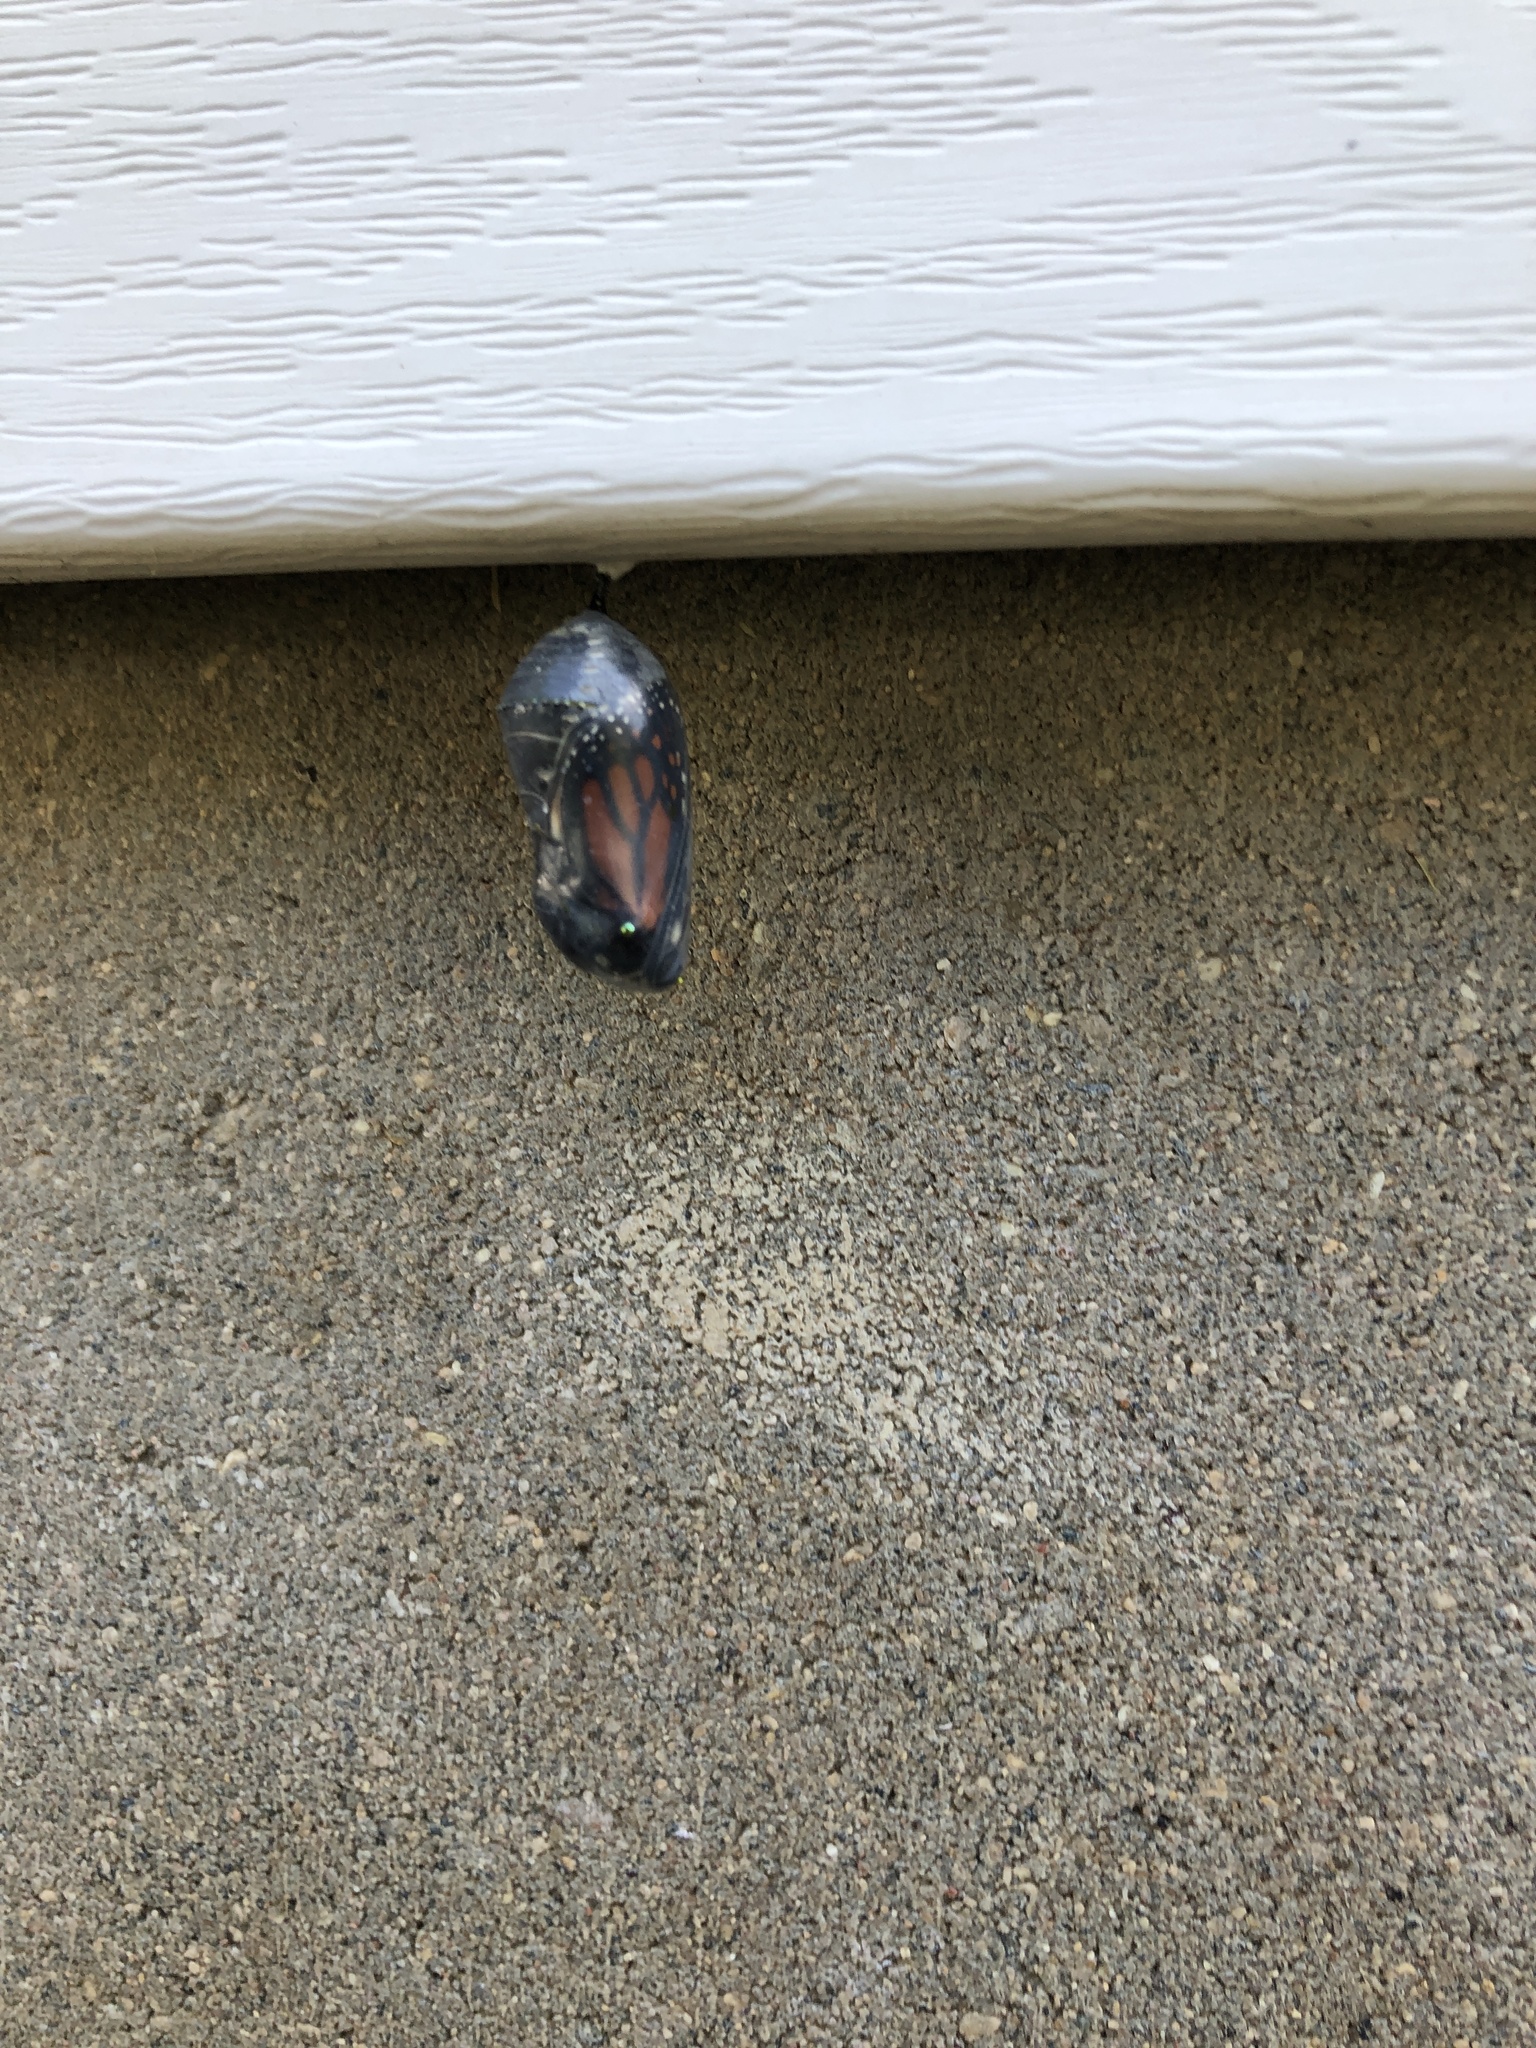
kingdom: Animalia
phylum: Arthropoda
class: Insecta
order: Lepidoptera
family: Nymphalidae
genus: Danaus
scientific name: Danaus plexippus
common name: Monarch
